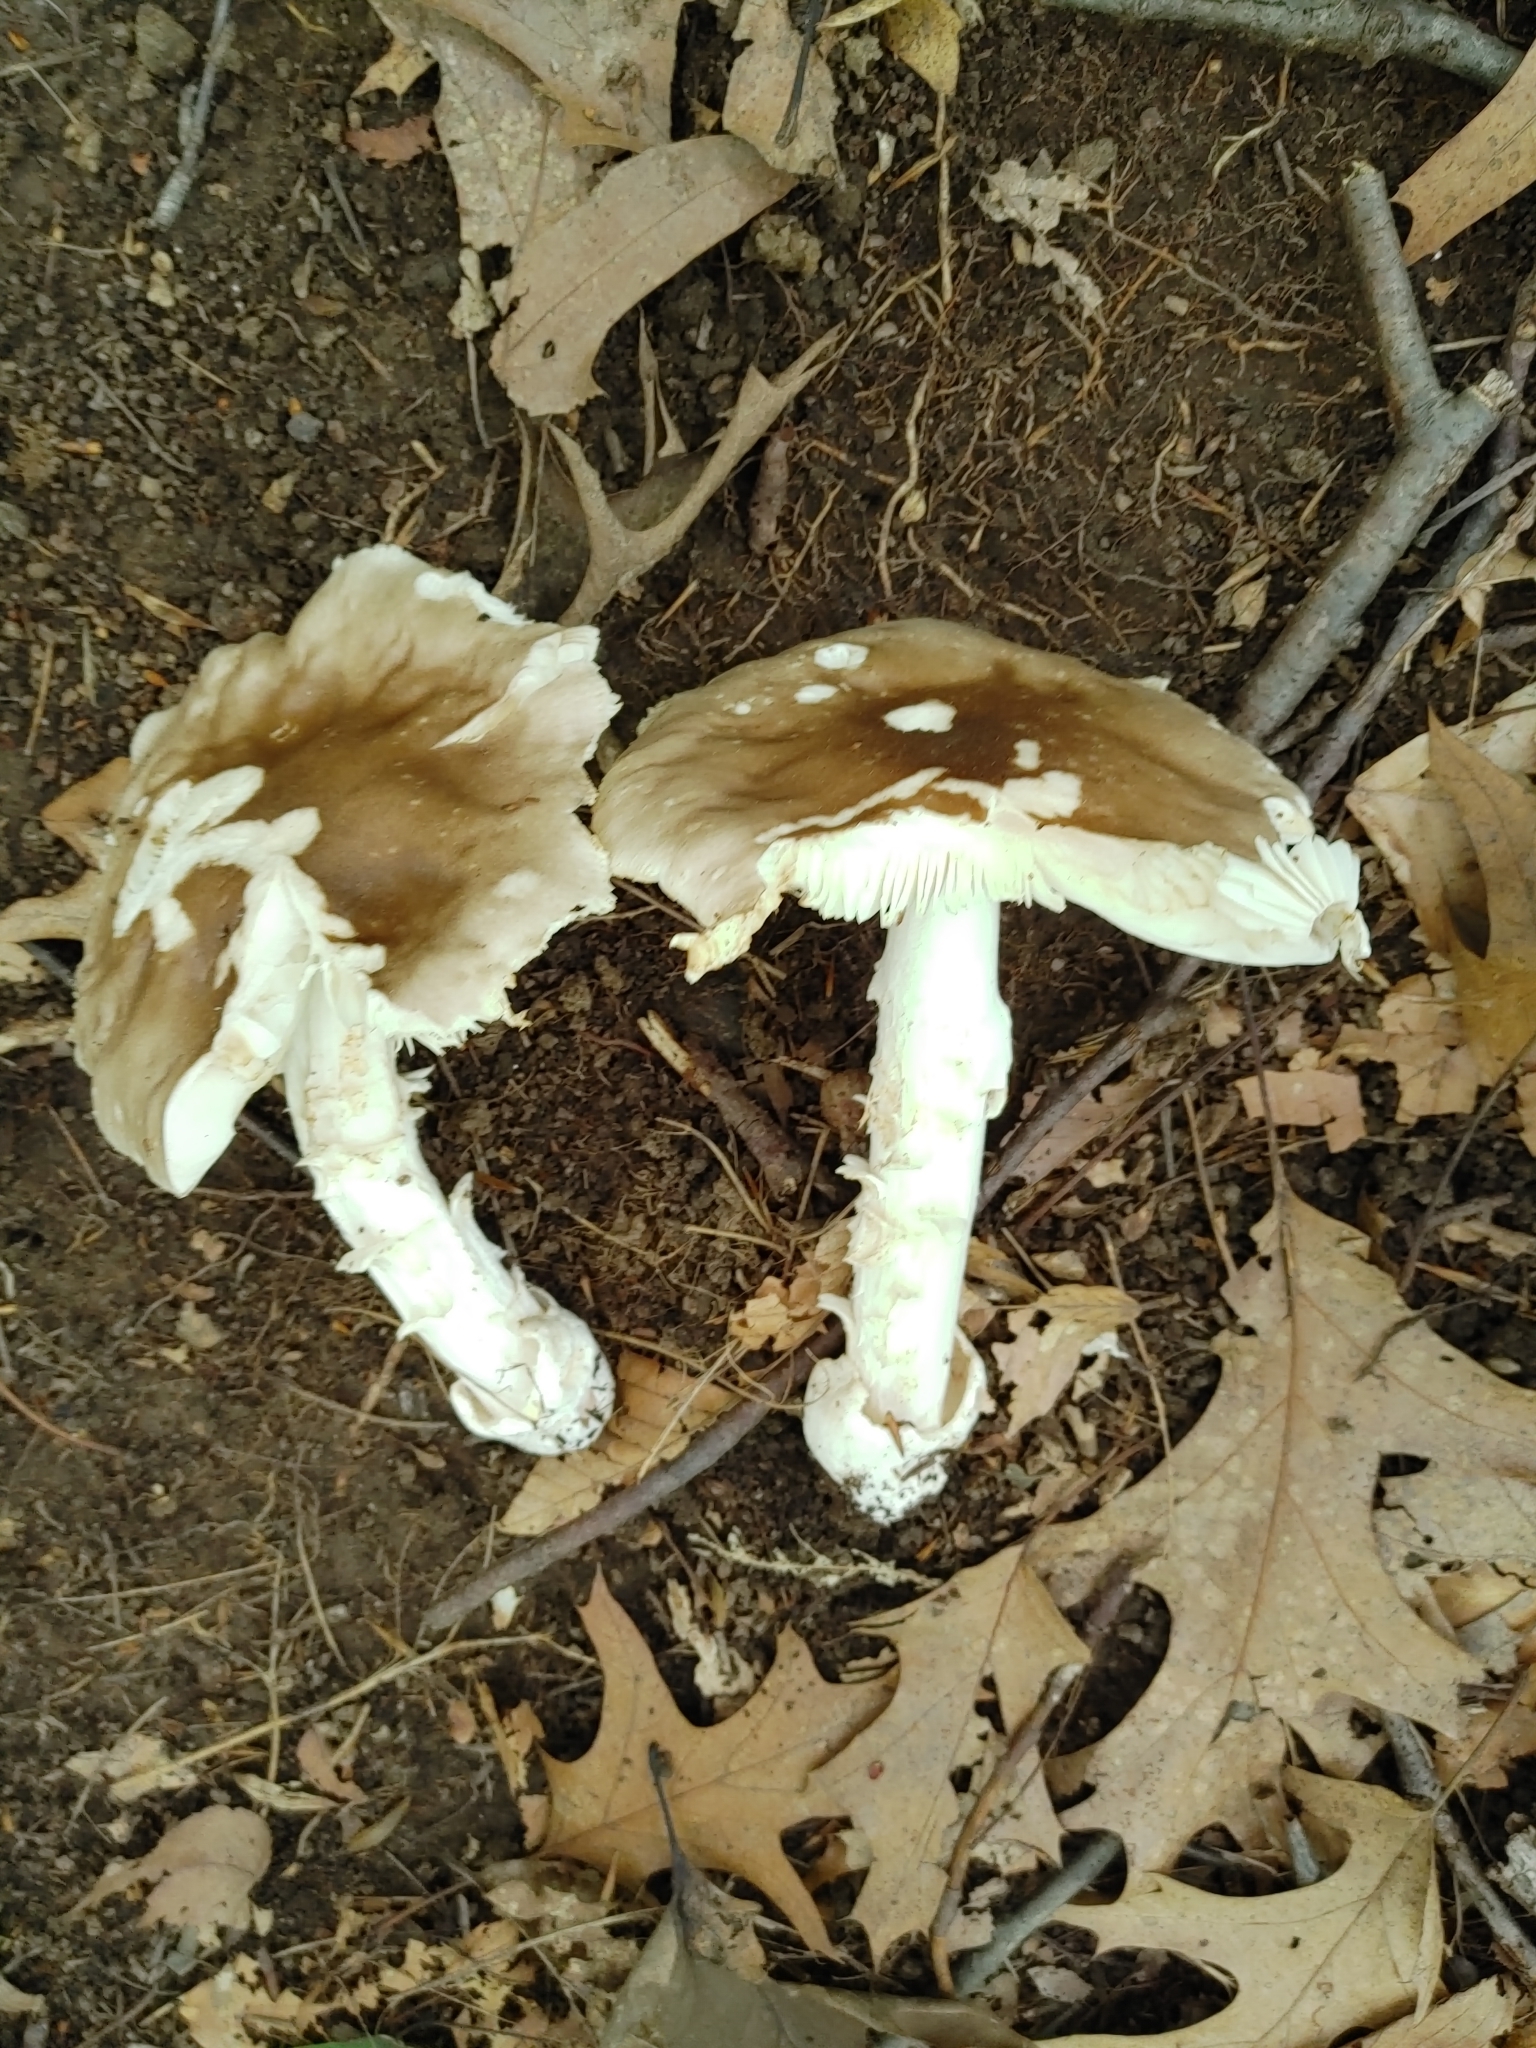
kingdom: Fungi
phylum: Basidiomycota
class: Agaricomycetes
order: Agaricales
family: Amanitaceae
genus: Amanita
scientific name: Amanita spreta
